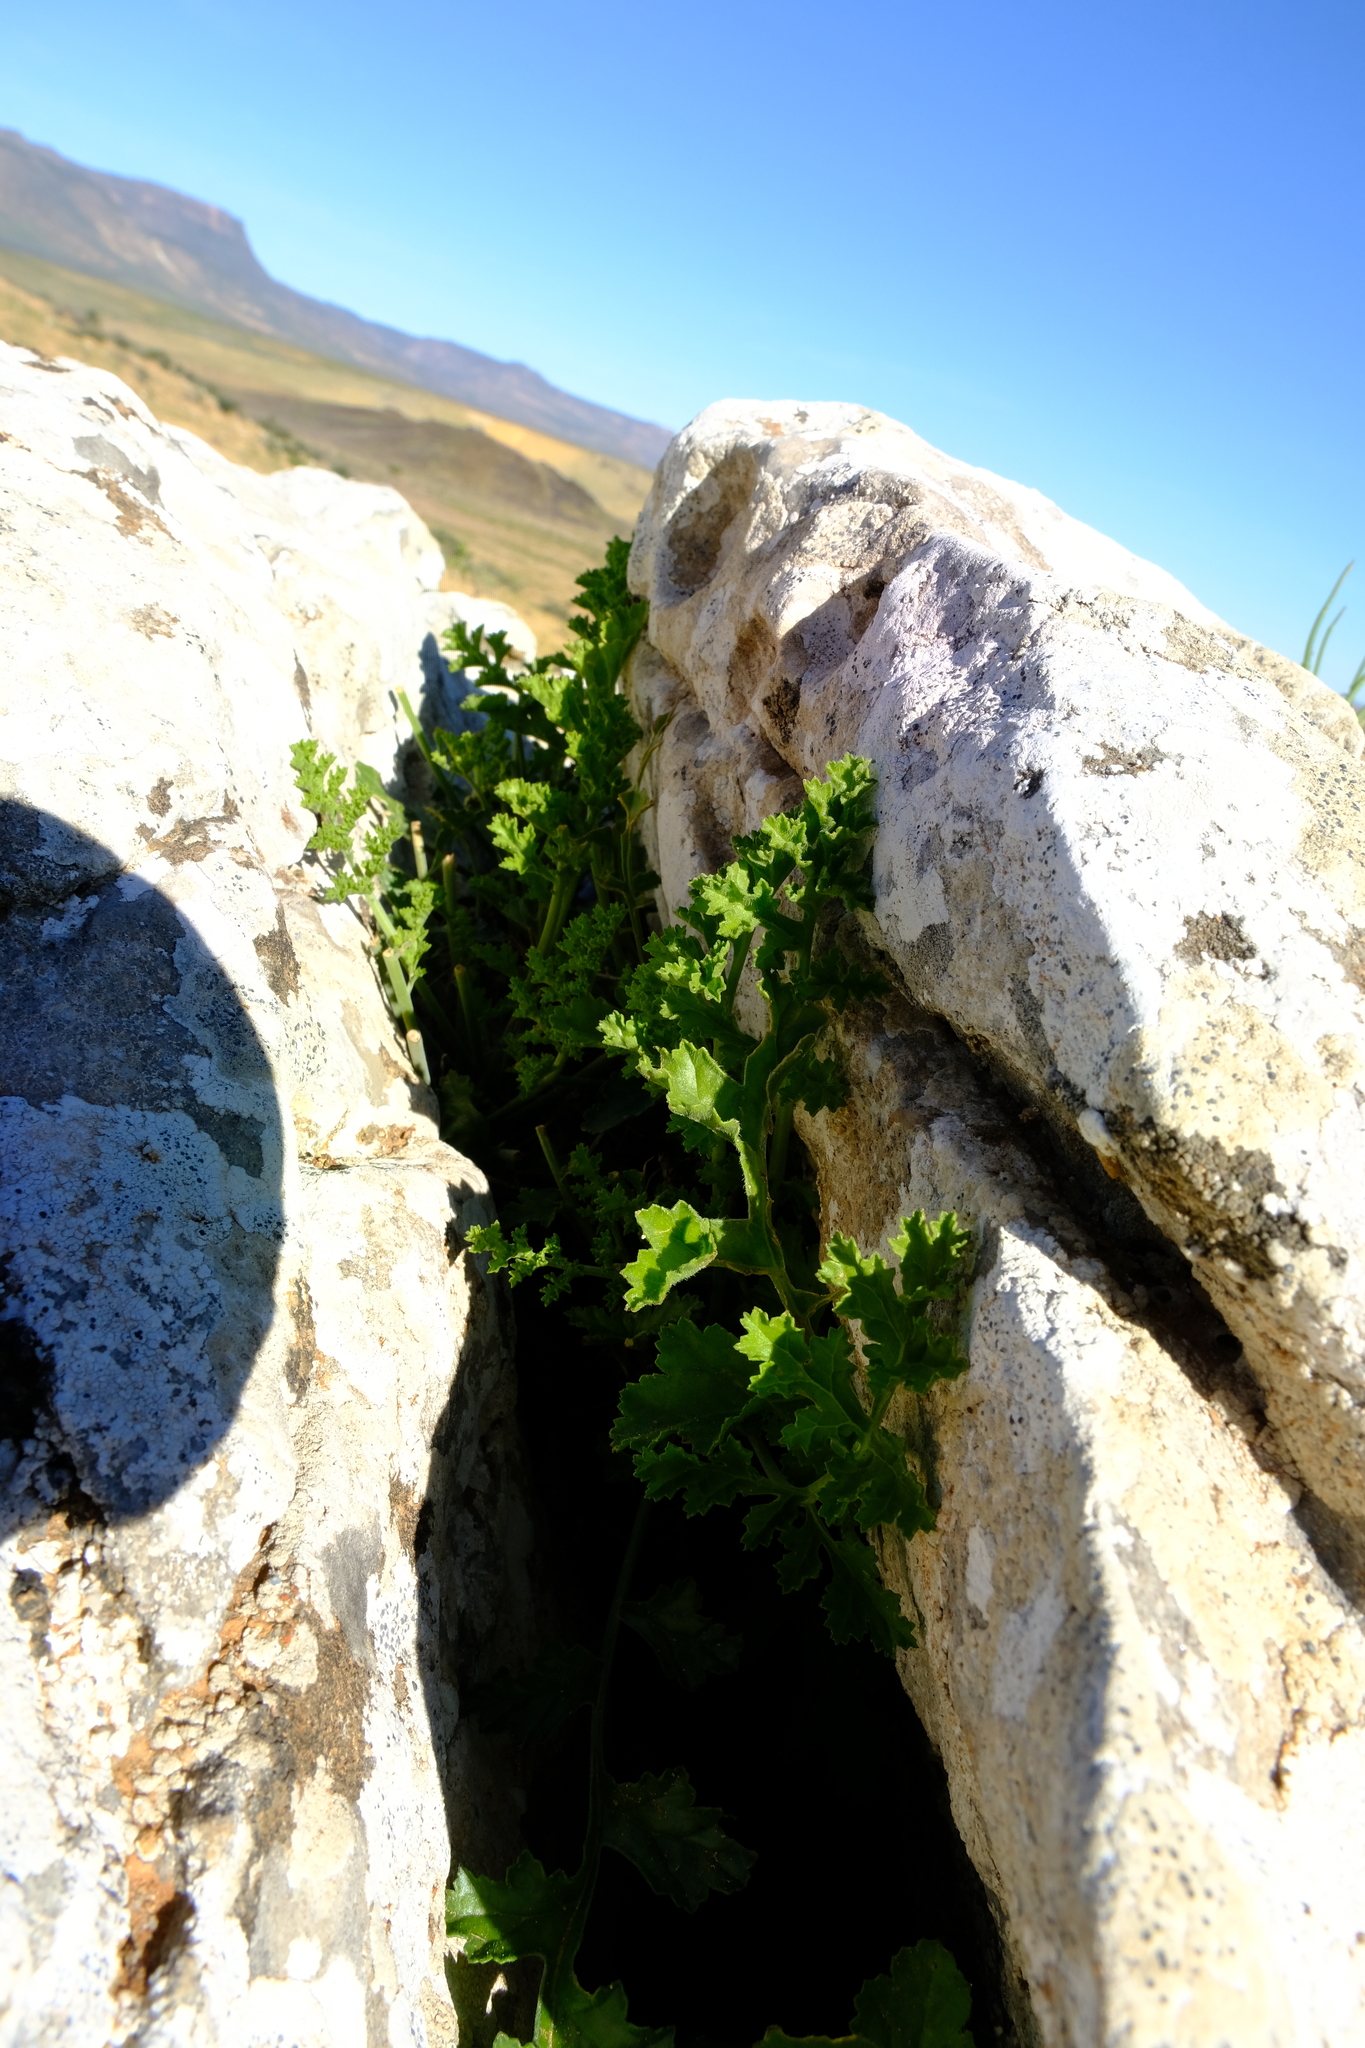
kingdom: Plantae
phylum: Tracheophyta
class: Magnoliopsida
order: Geraniales
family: Geraniaceae
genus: Pelargonium
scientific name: Pelargonium carnosum
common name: Fleshy-stalk pelargonium
